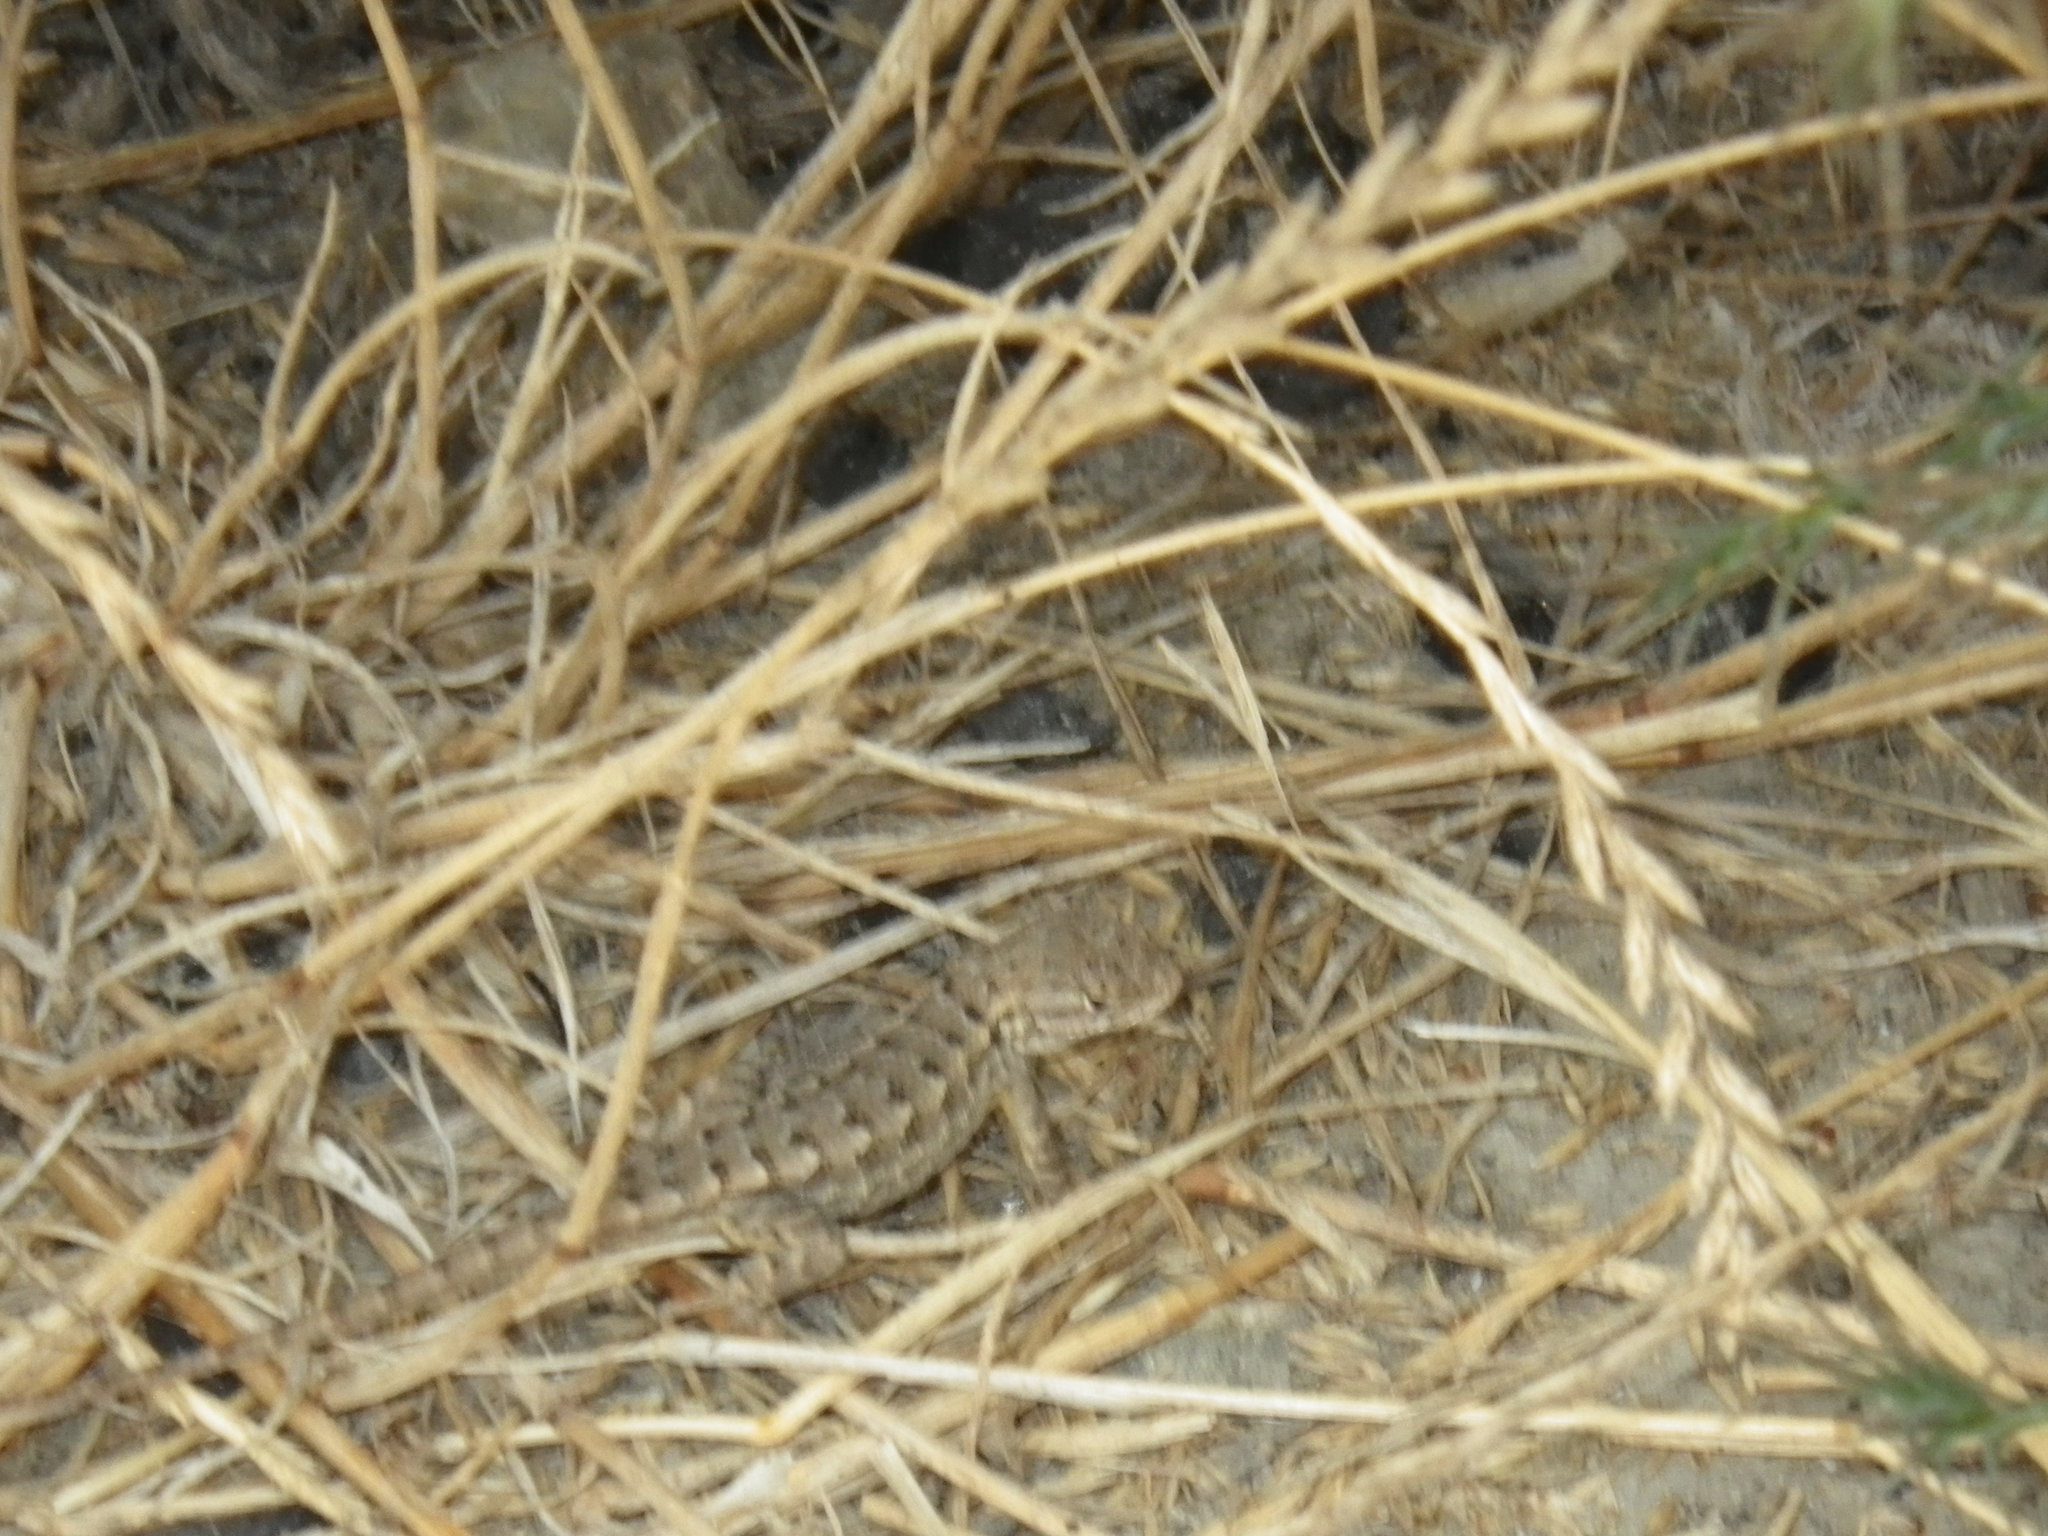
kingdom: Animalia
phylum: Chordata
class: Squamata
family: Phrynosomatidae
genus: Sceloporus
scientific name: Sceloporus occidentalis
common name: Western fence lizard
